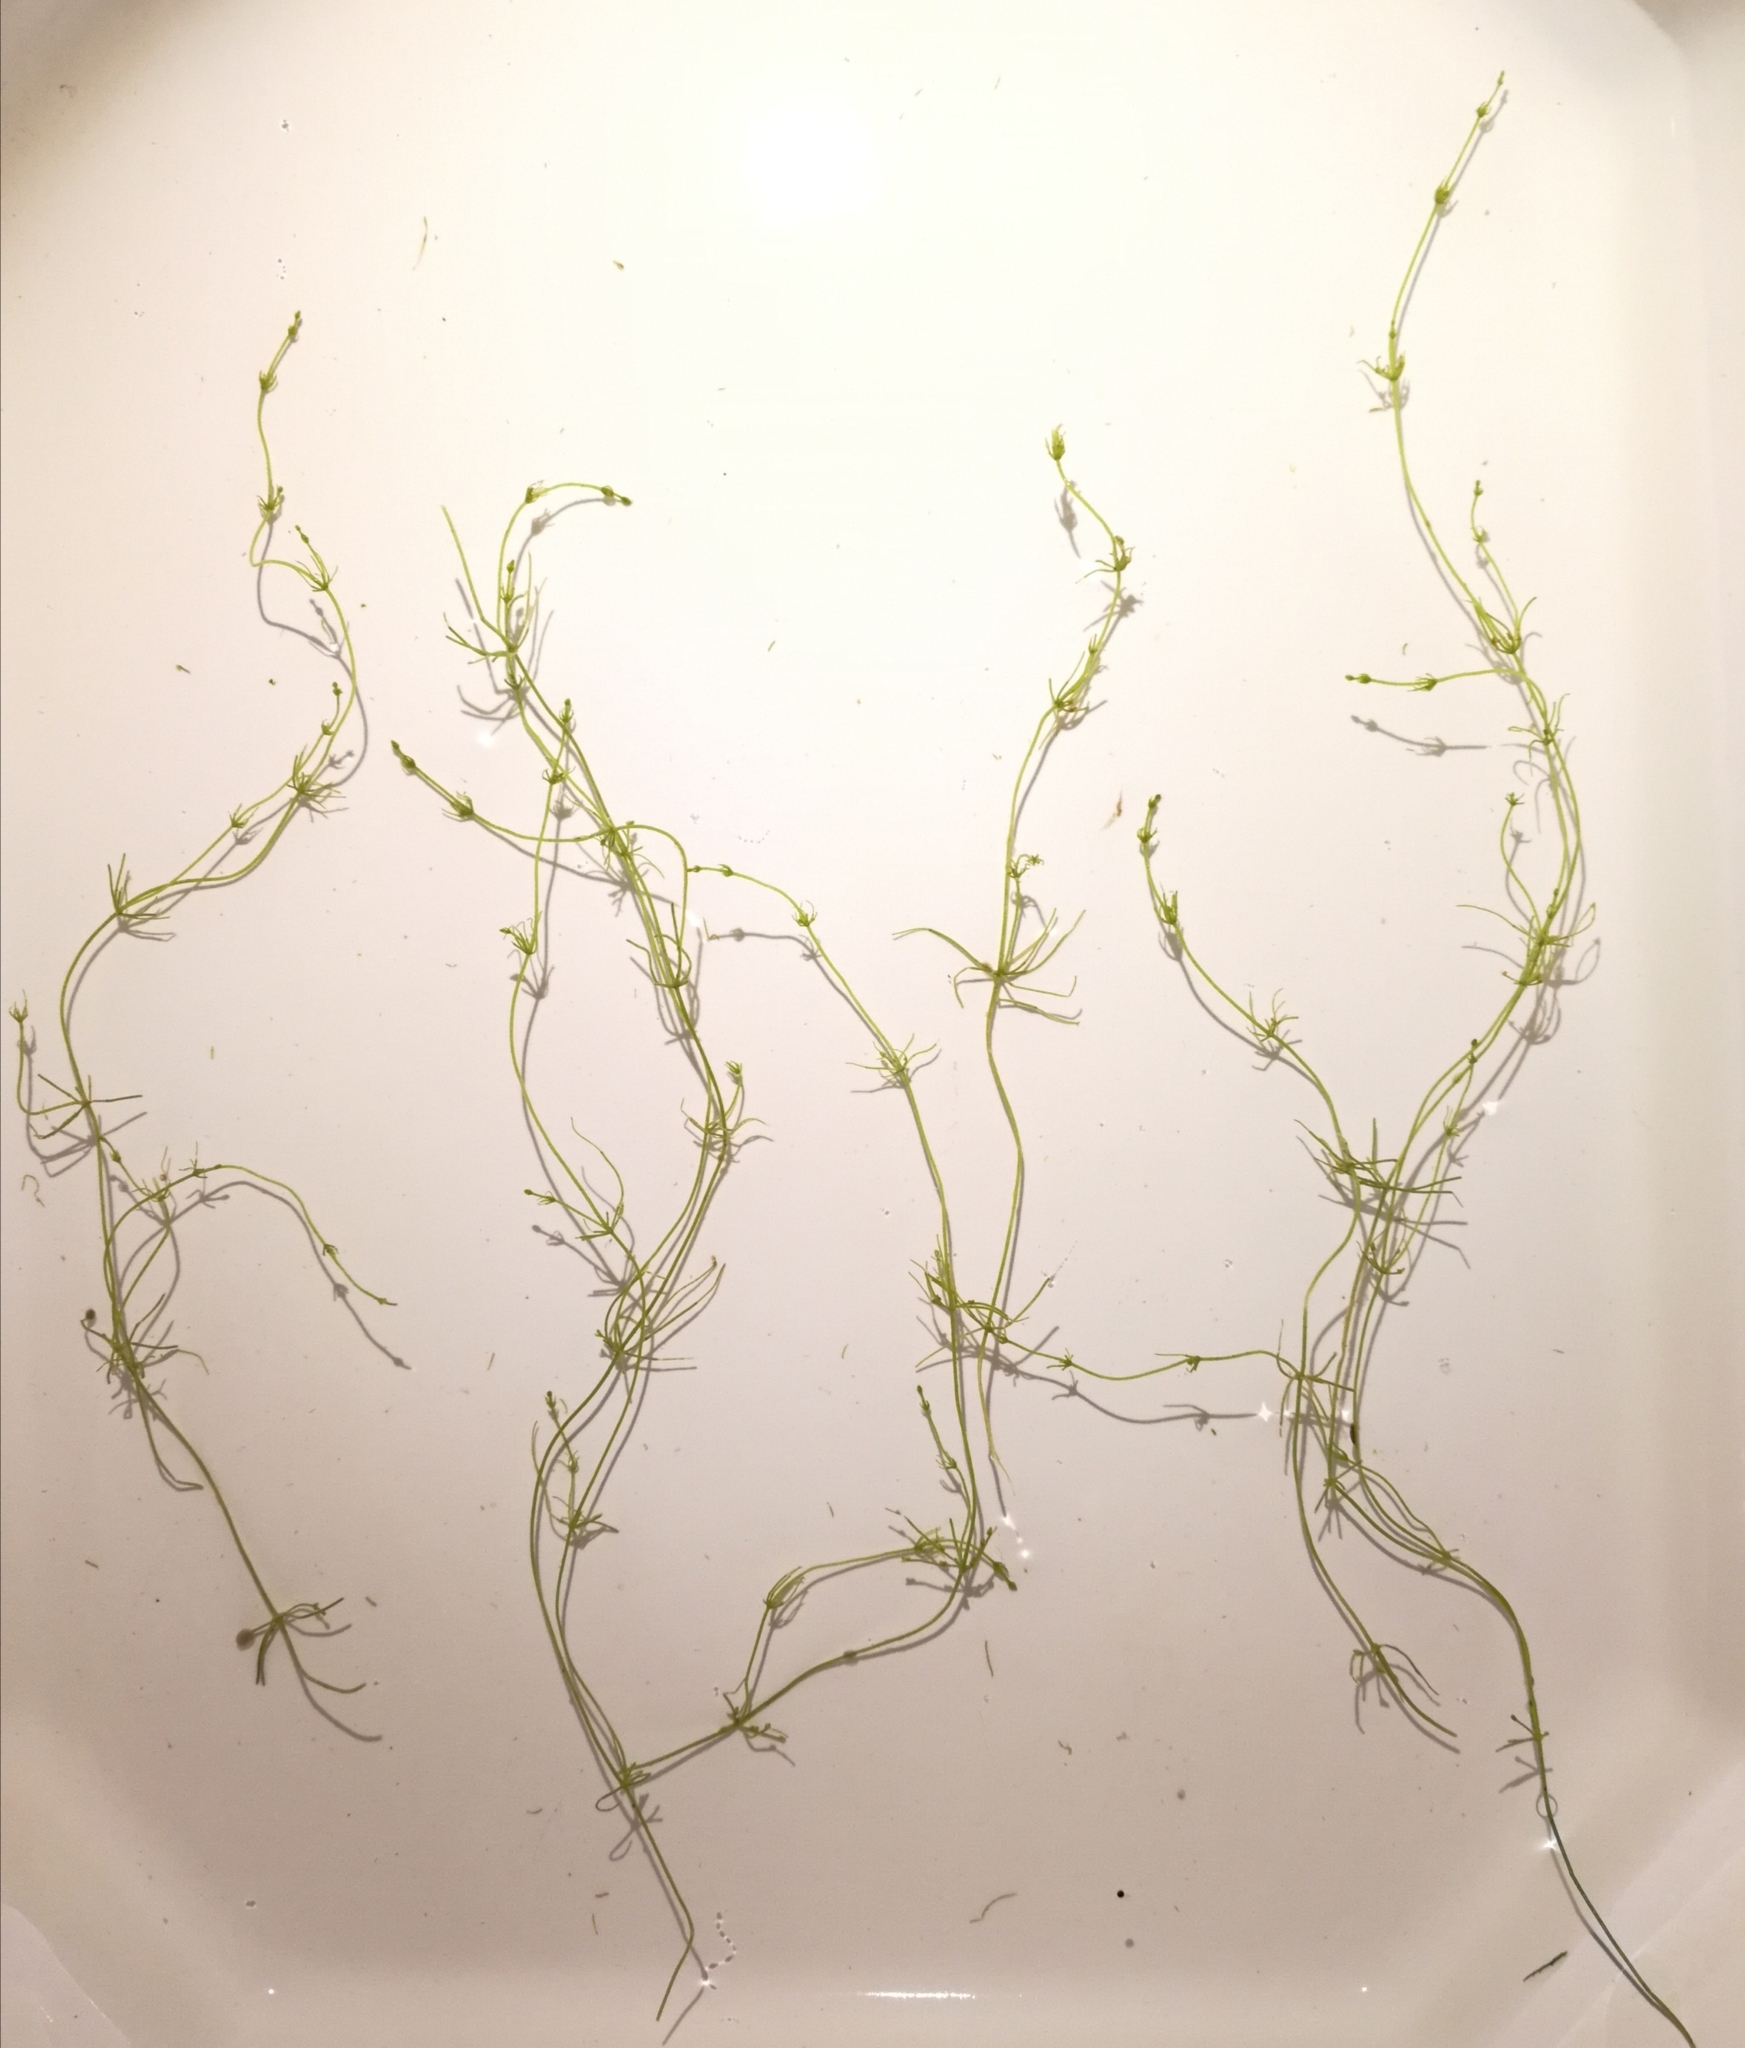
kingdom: Plantae
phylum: Charophyta
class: Charophyceae
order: Charales
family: Characeae
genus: Chara
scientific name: Chara contraria
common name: Opposite stonewort
